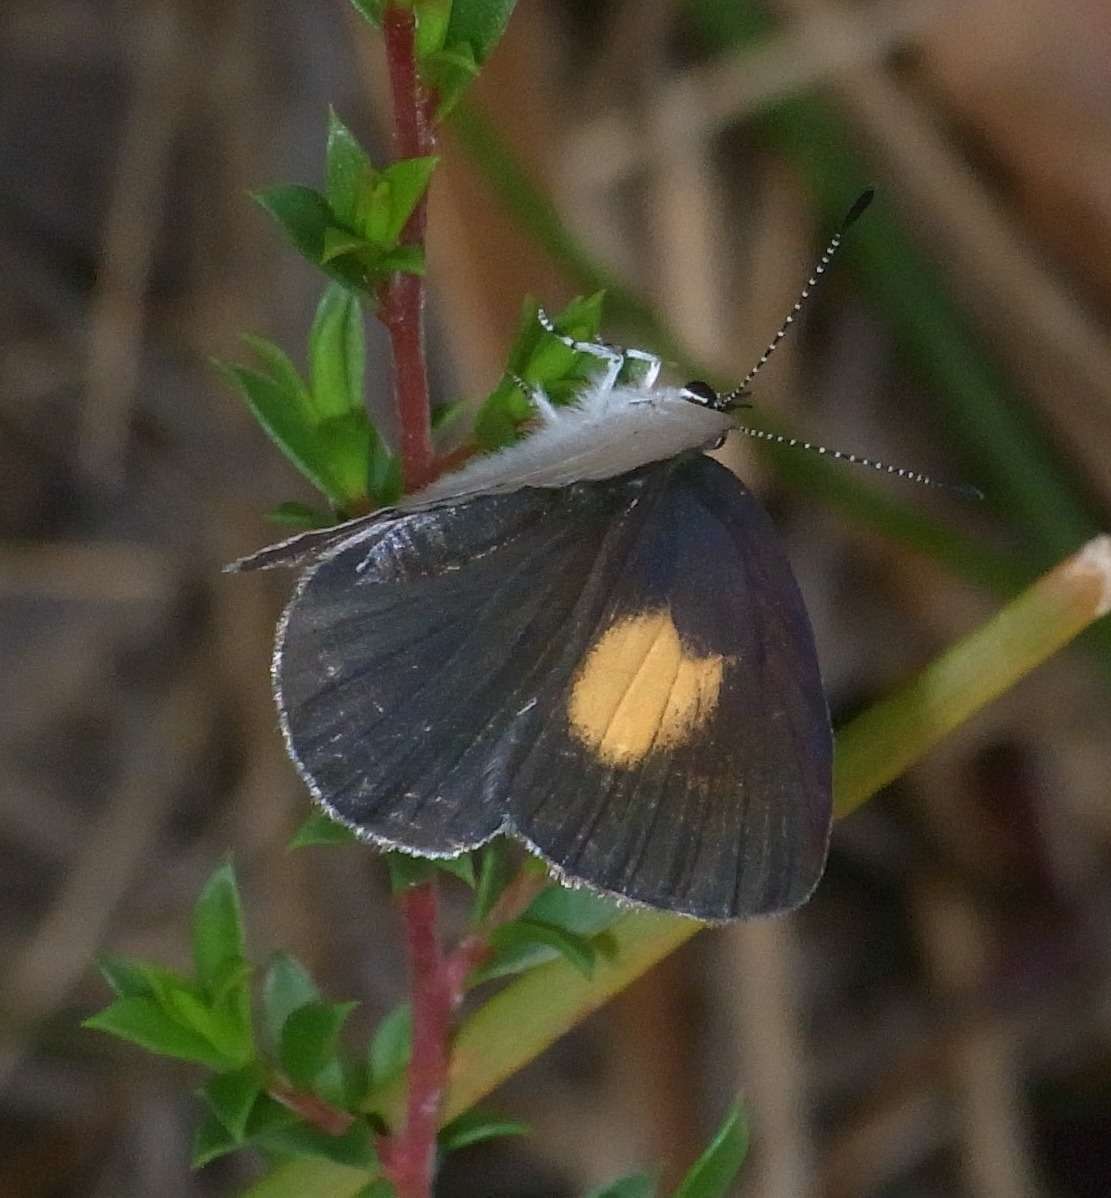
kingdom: Animalia
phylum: Arthropoda
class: Insecta
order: Lepidoptera
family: Lycaenidae
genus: Candalides
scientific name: Candalides xanthospilos
